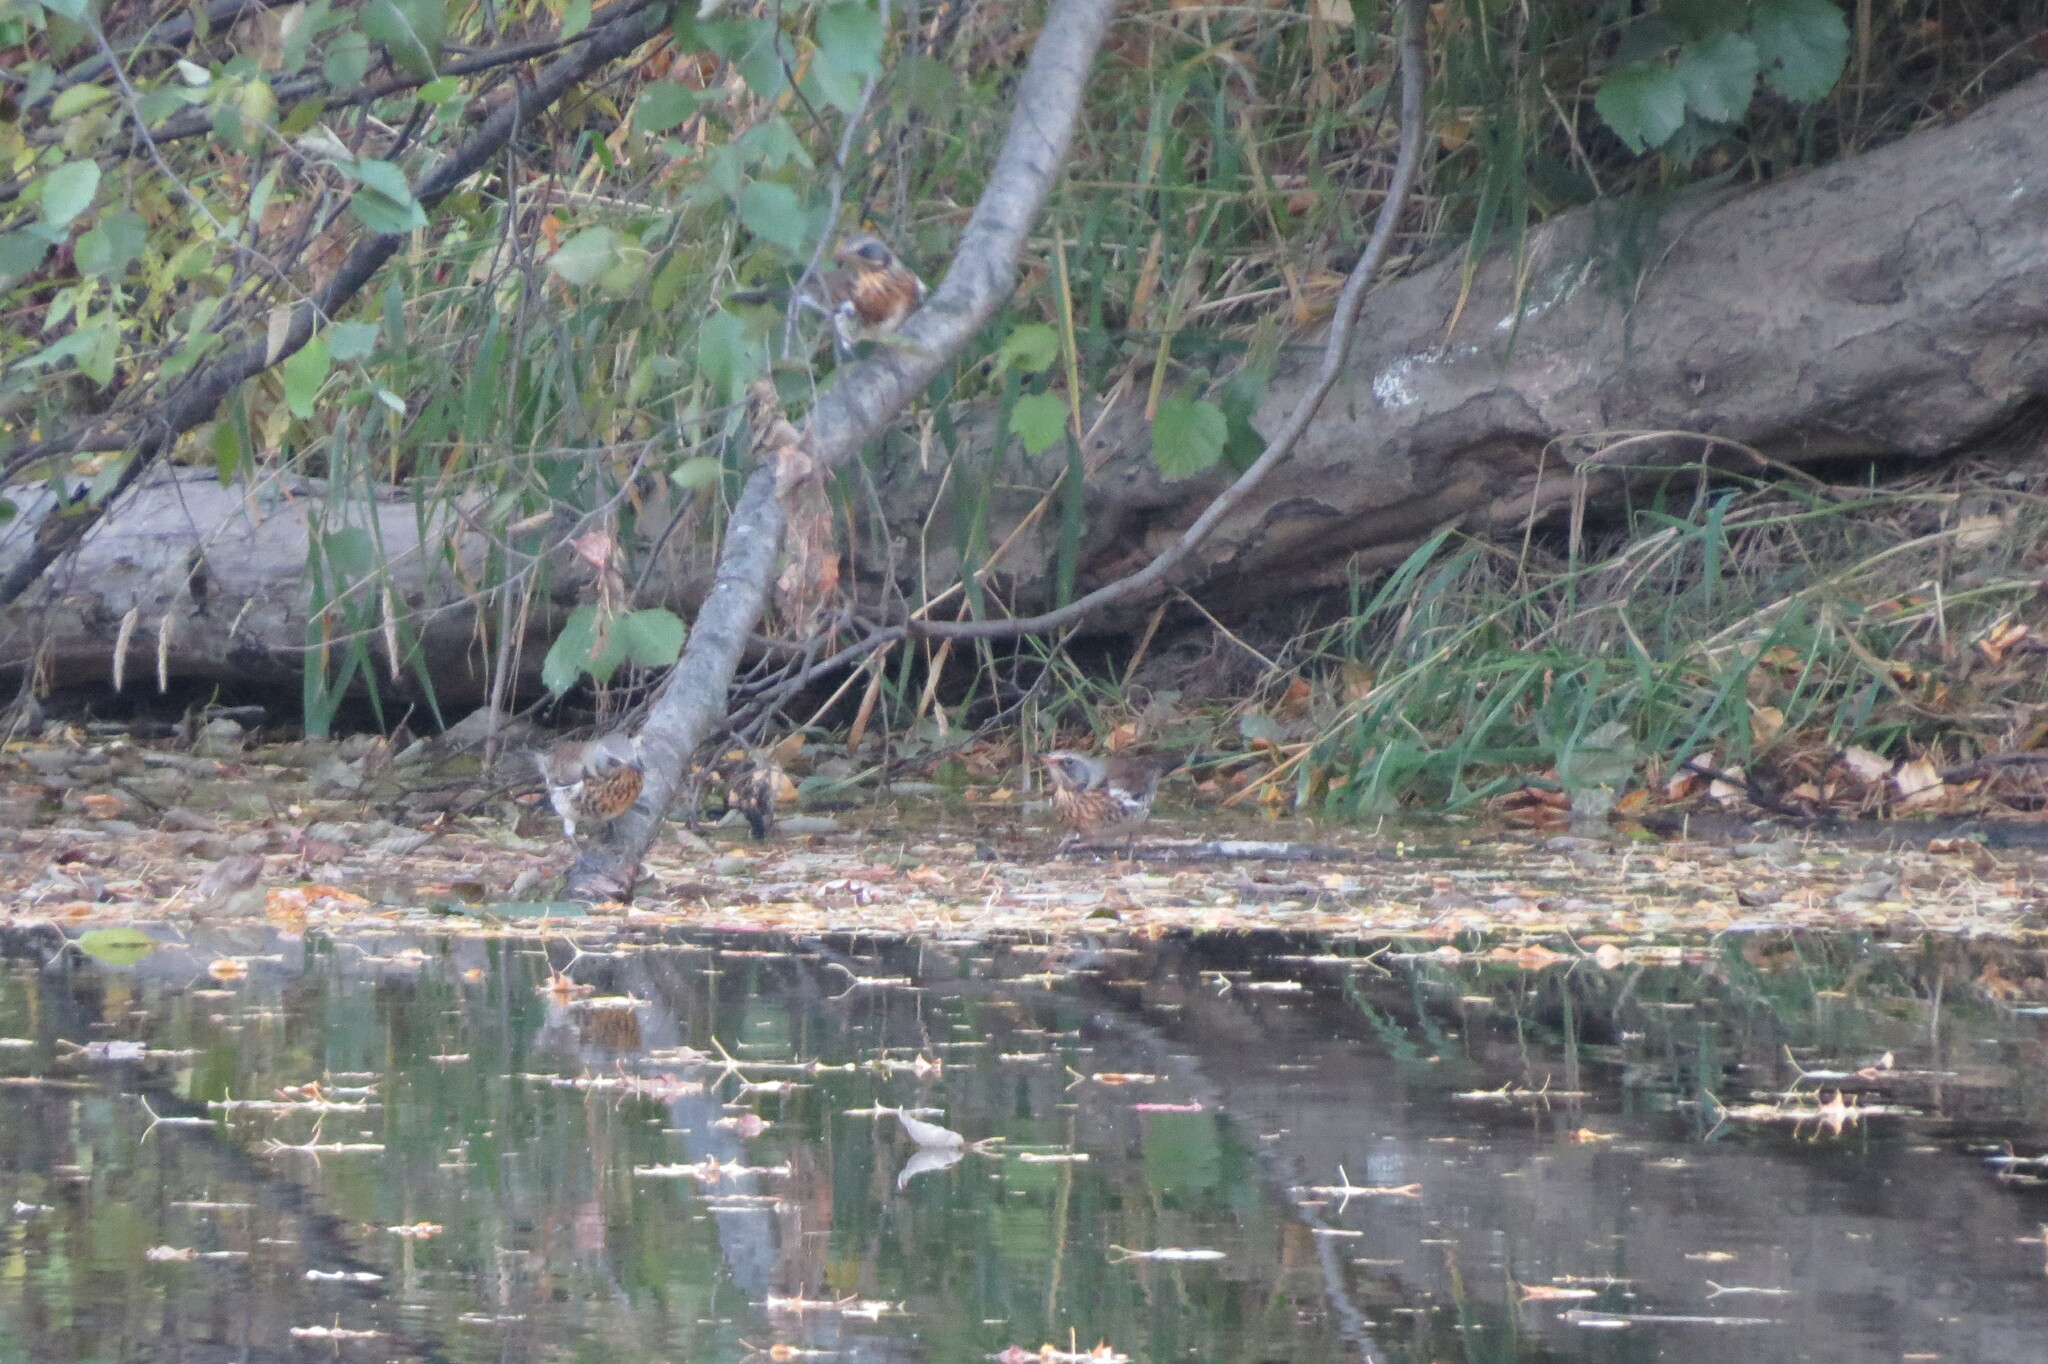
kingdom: Animalia
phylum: Chordata
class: Aves
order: Passeriformes
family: Turdidae
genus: Turdus
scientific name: Turdus pilaris
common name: Fieldfare
